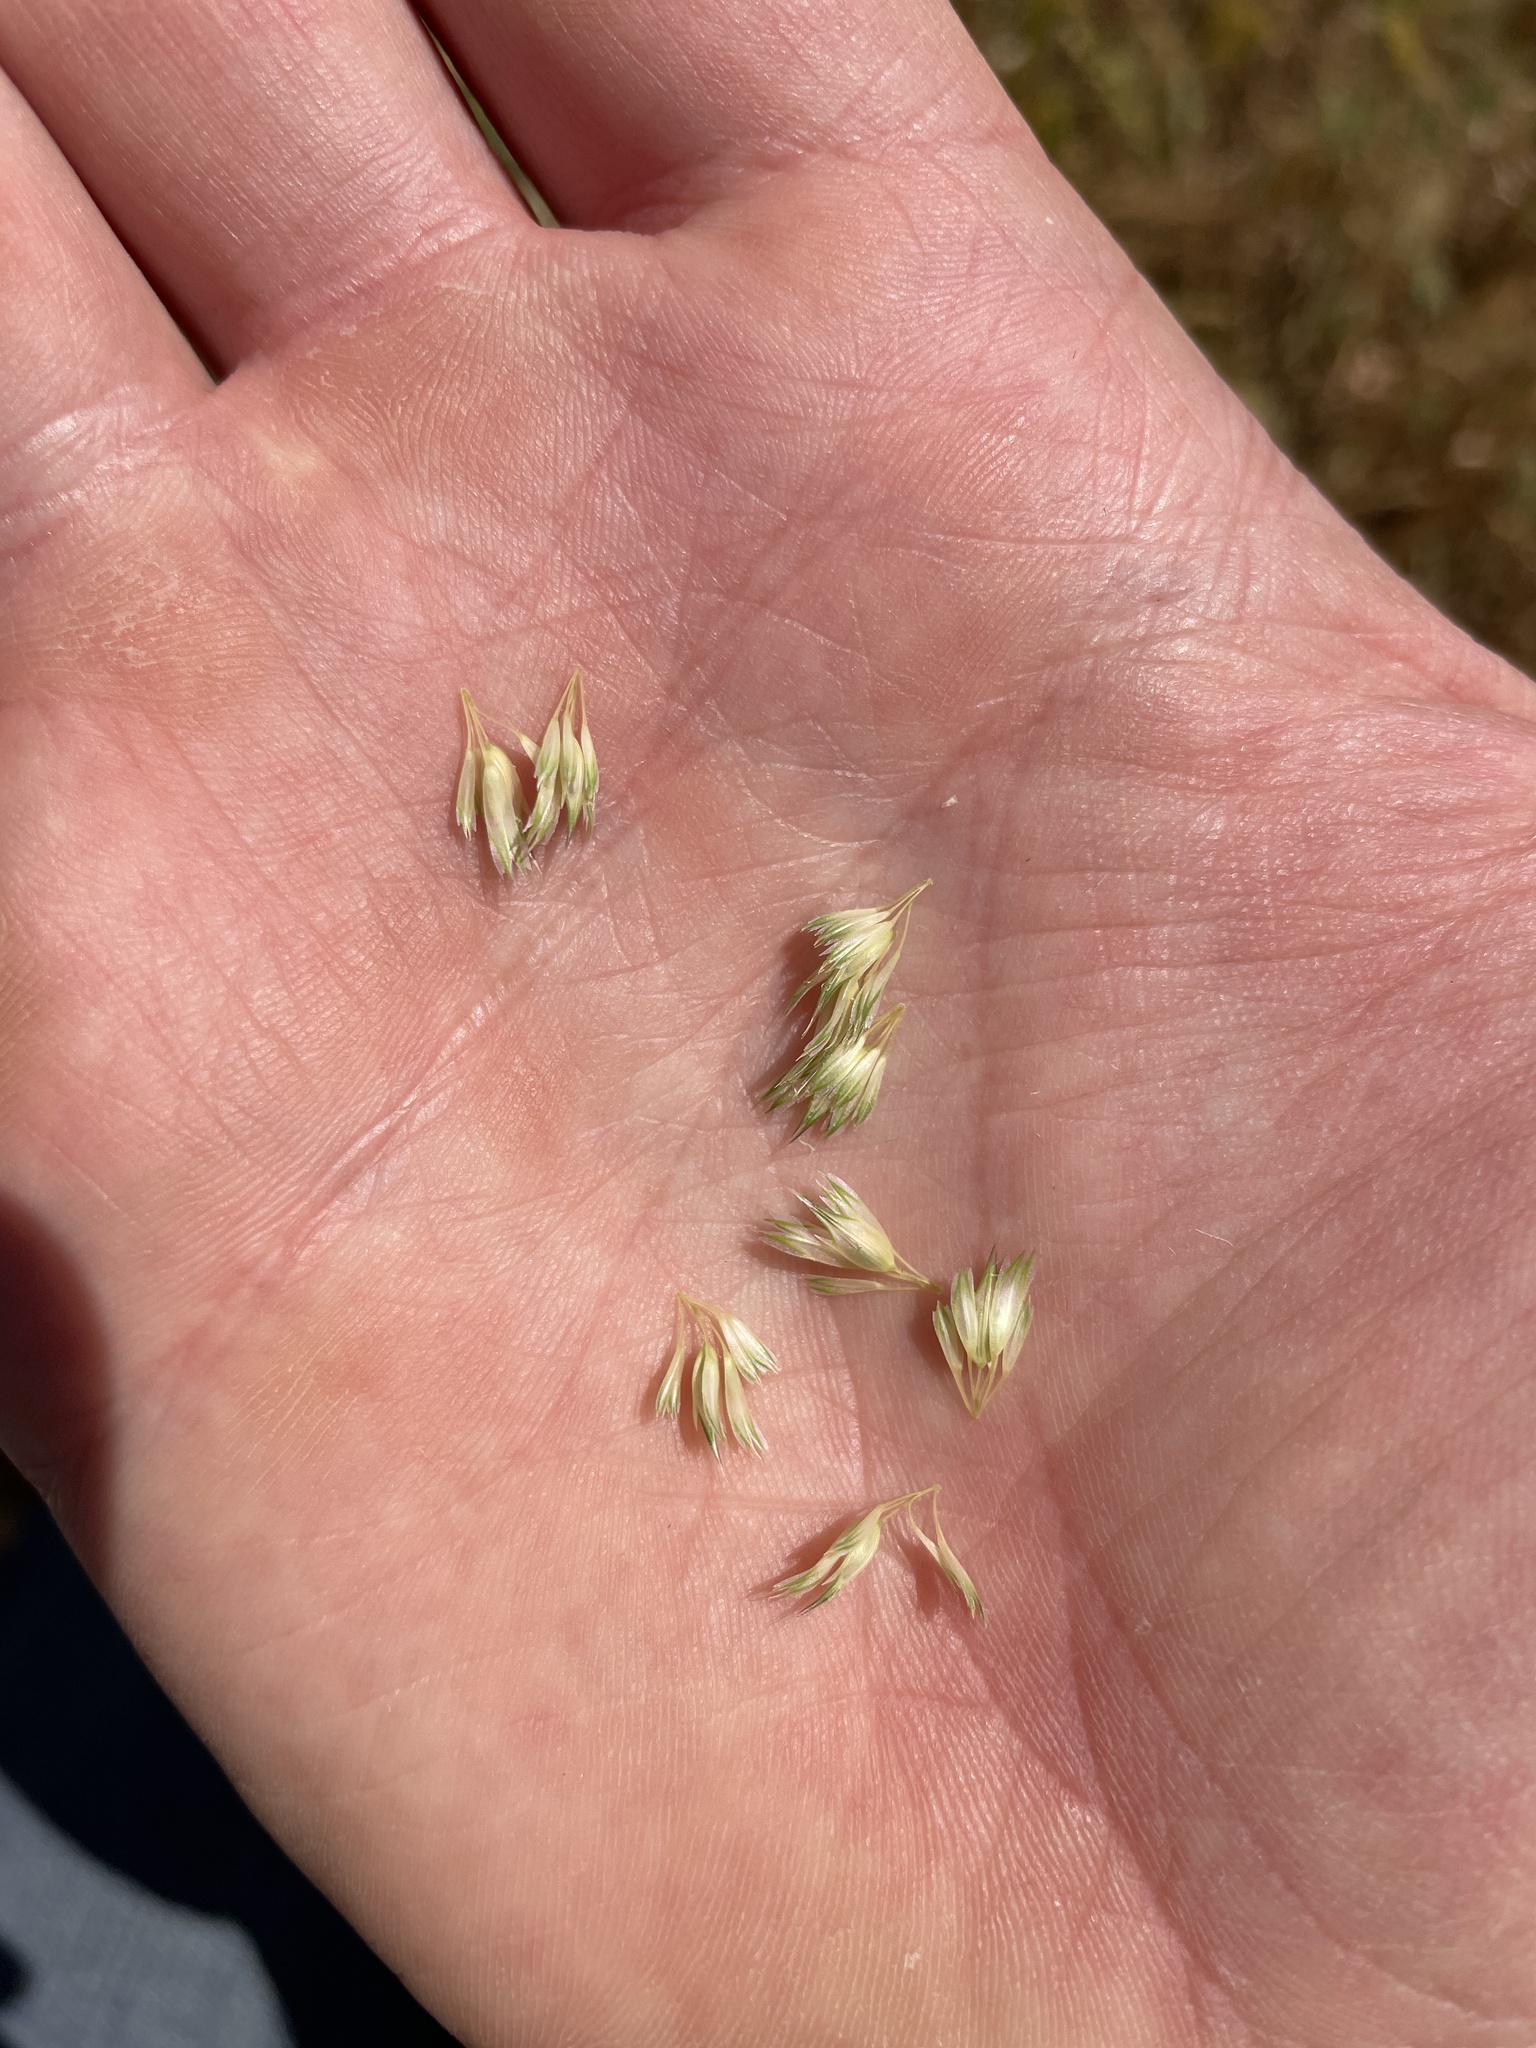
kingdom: Plantae
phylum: Tracheophyta
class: Liliopsida
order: Poales
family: Poaceae
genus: Phalaris
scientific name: Phalaris paradoxa
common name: Awned canary-grass
